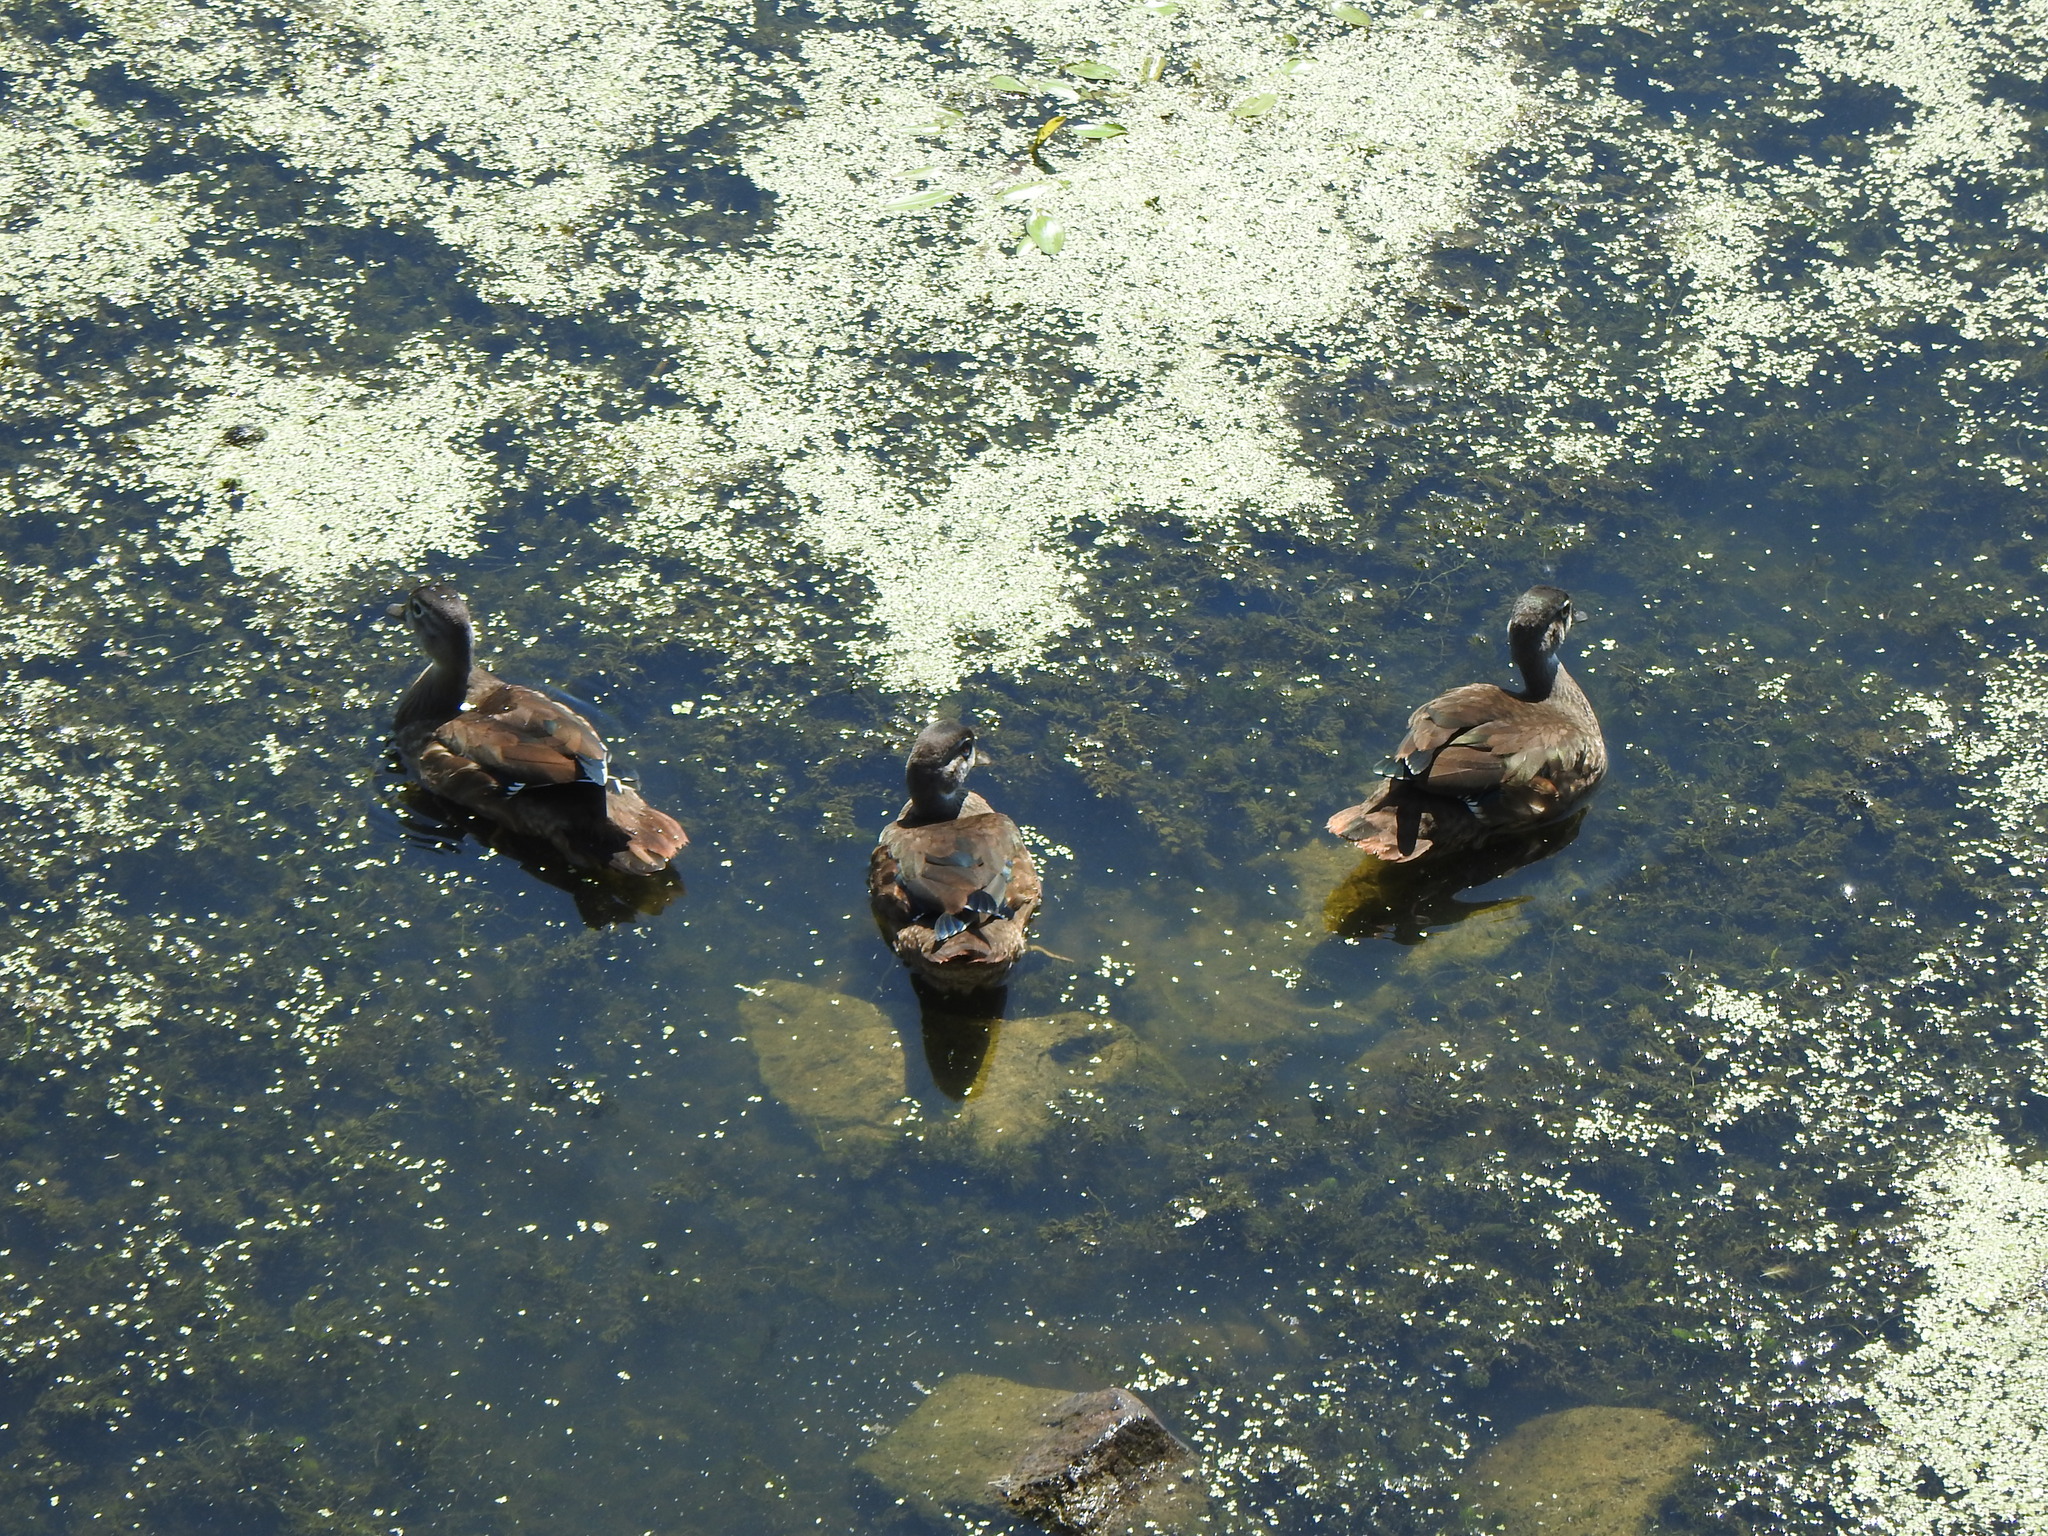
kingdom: Animalia
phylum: Chordata
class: Aves
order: Anseriformes
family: Anatidae
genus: Aix
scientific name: Aix sponsa
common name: Wood duck
